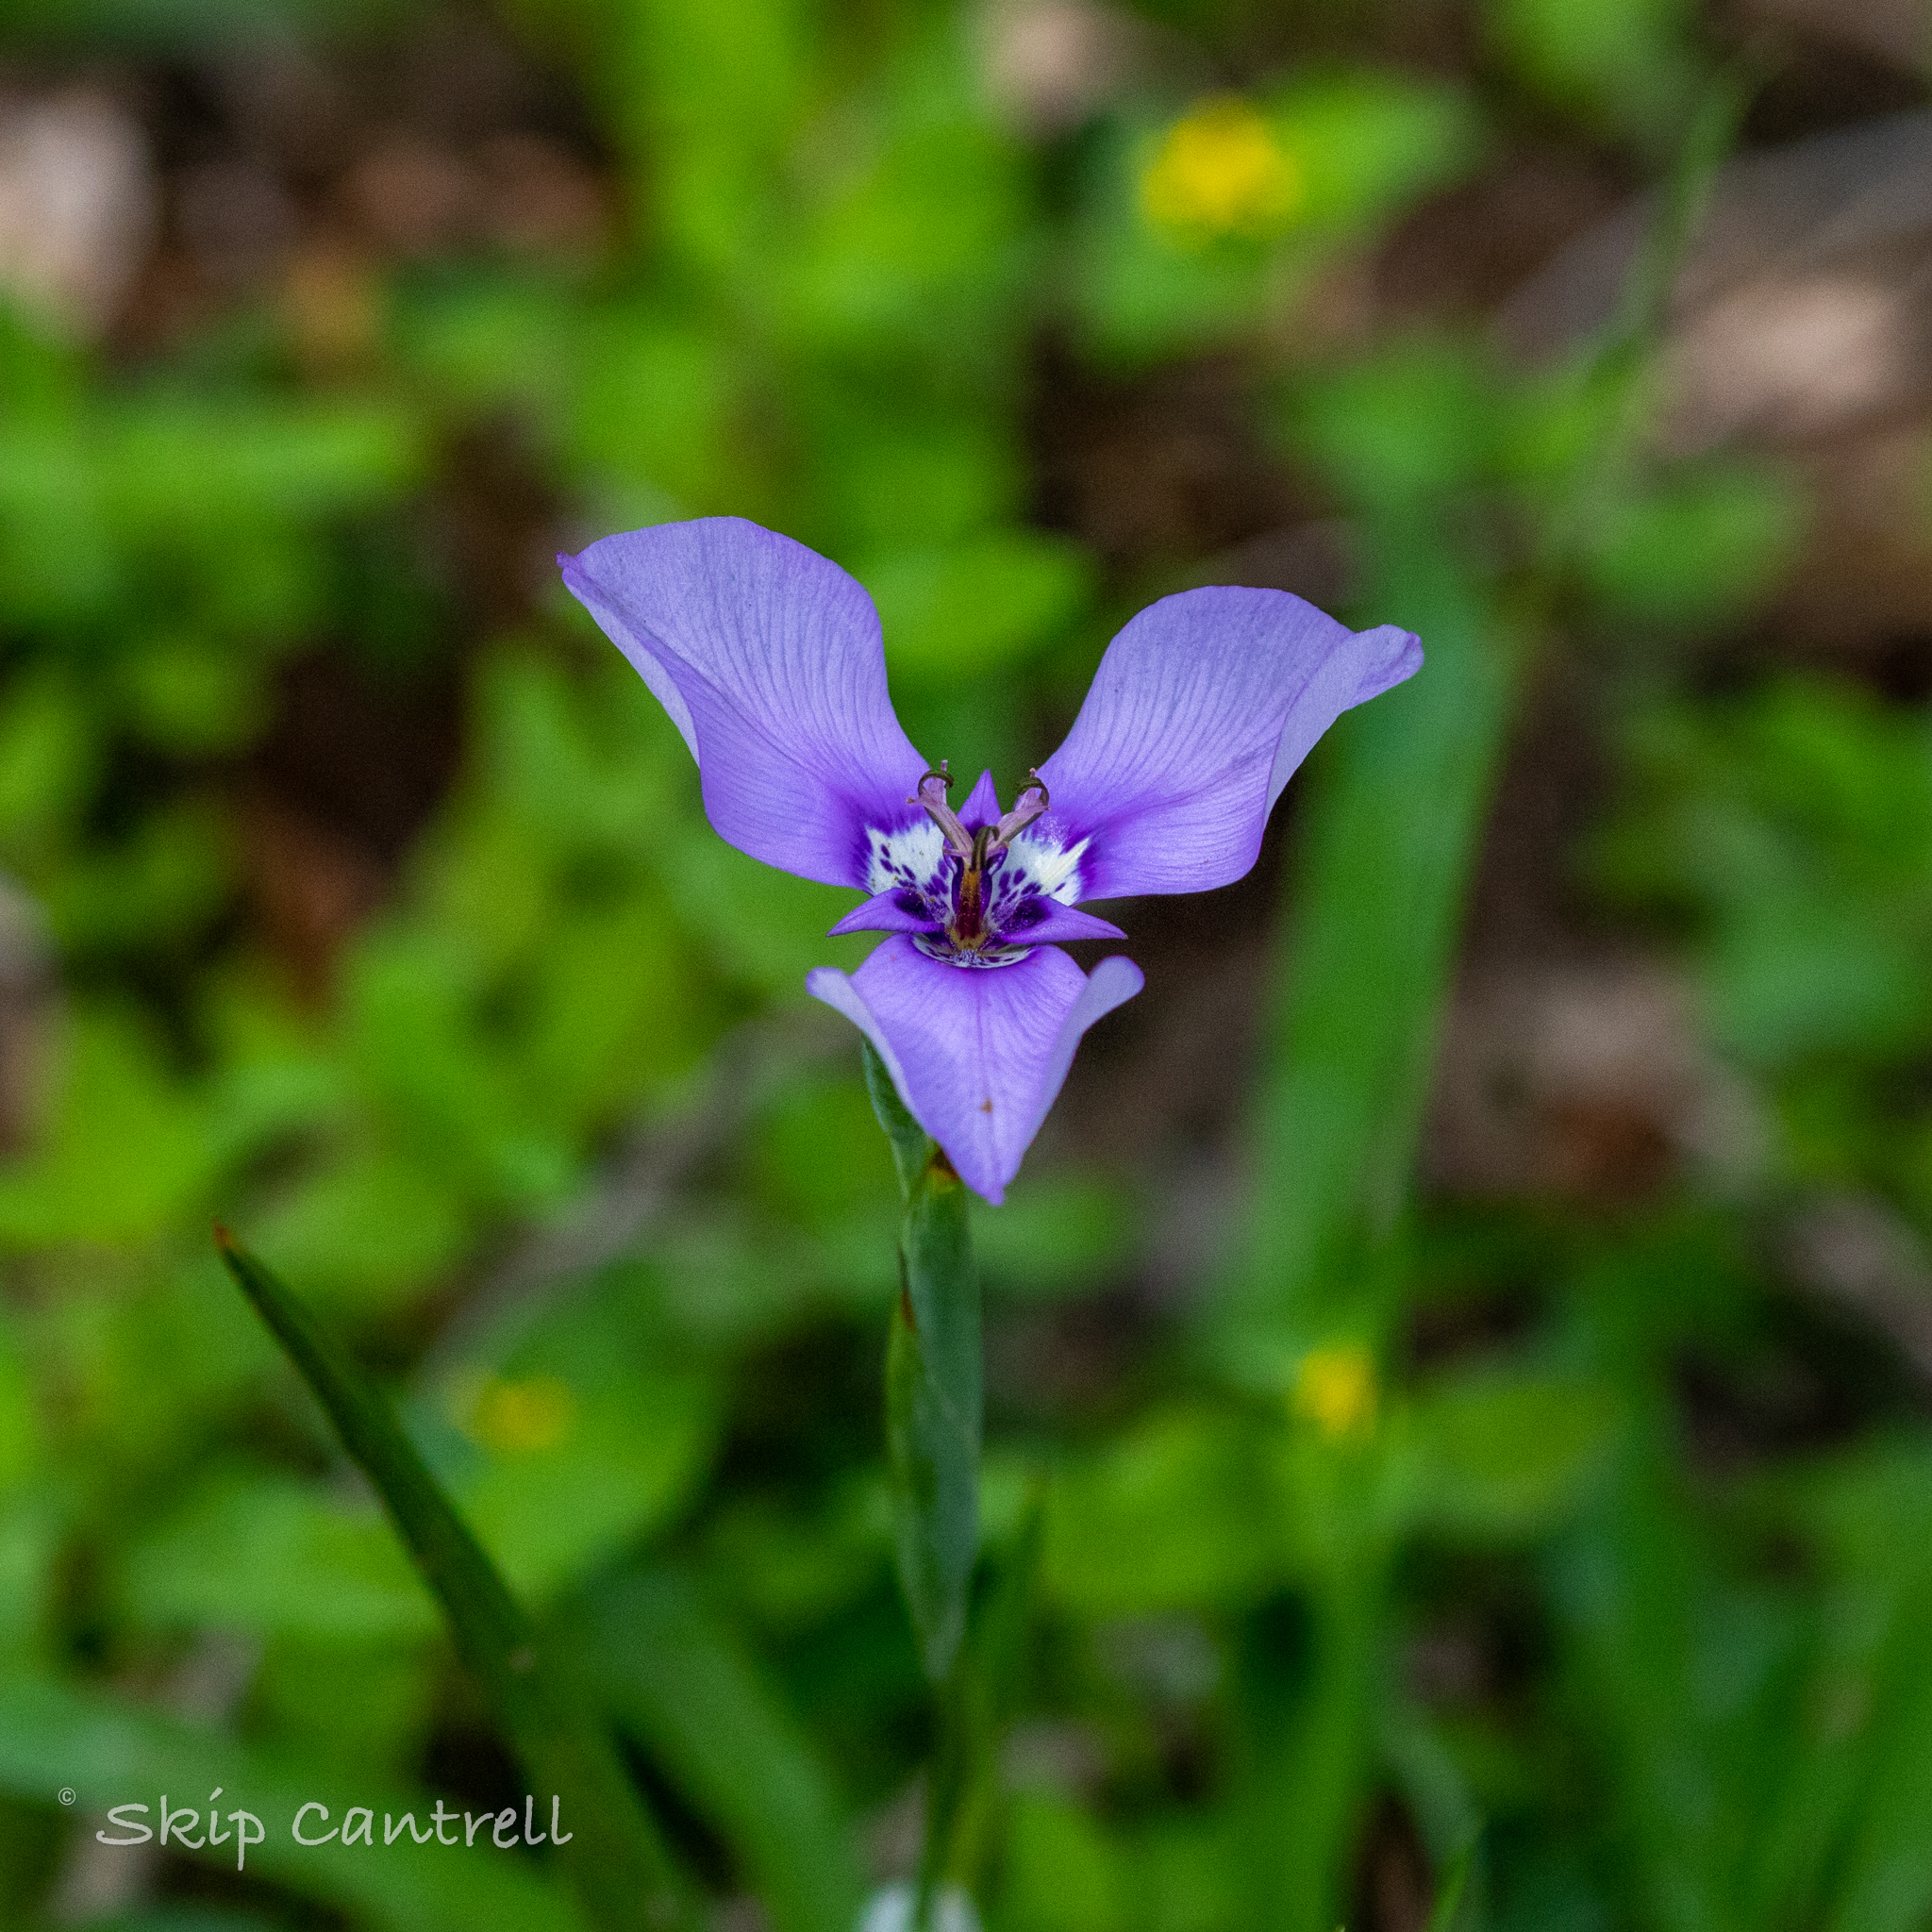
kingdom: Plantae
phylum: Tracheophyta
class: Liliopsida
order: Asparagales
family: Iridaceae
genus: Herbertia
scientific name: Herbertia lahue
